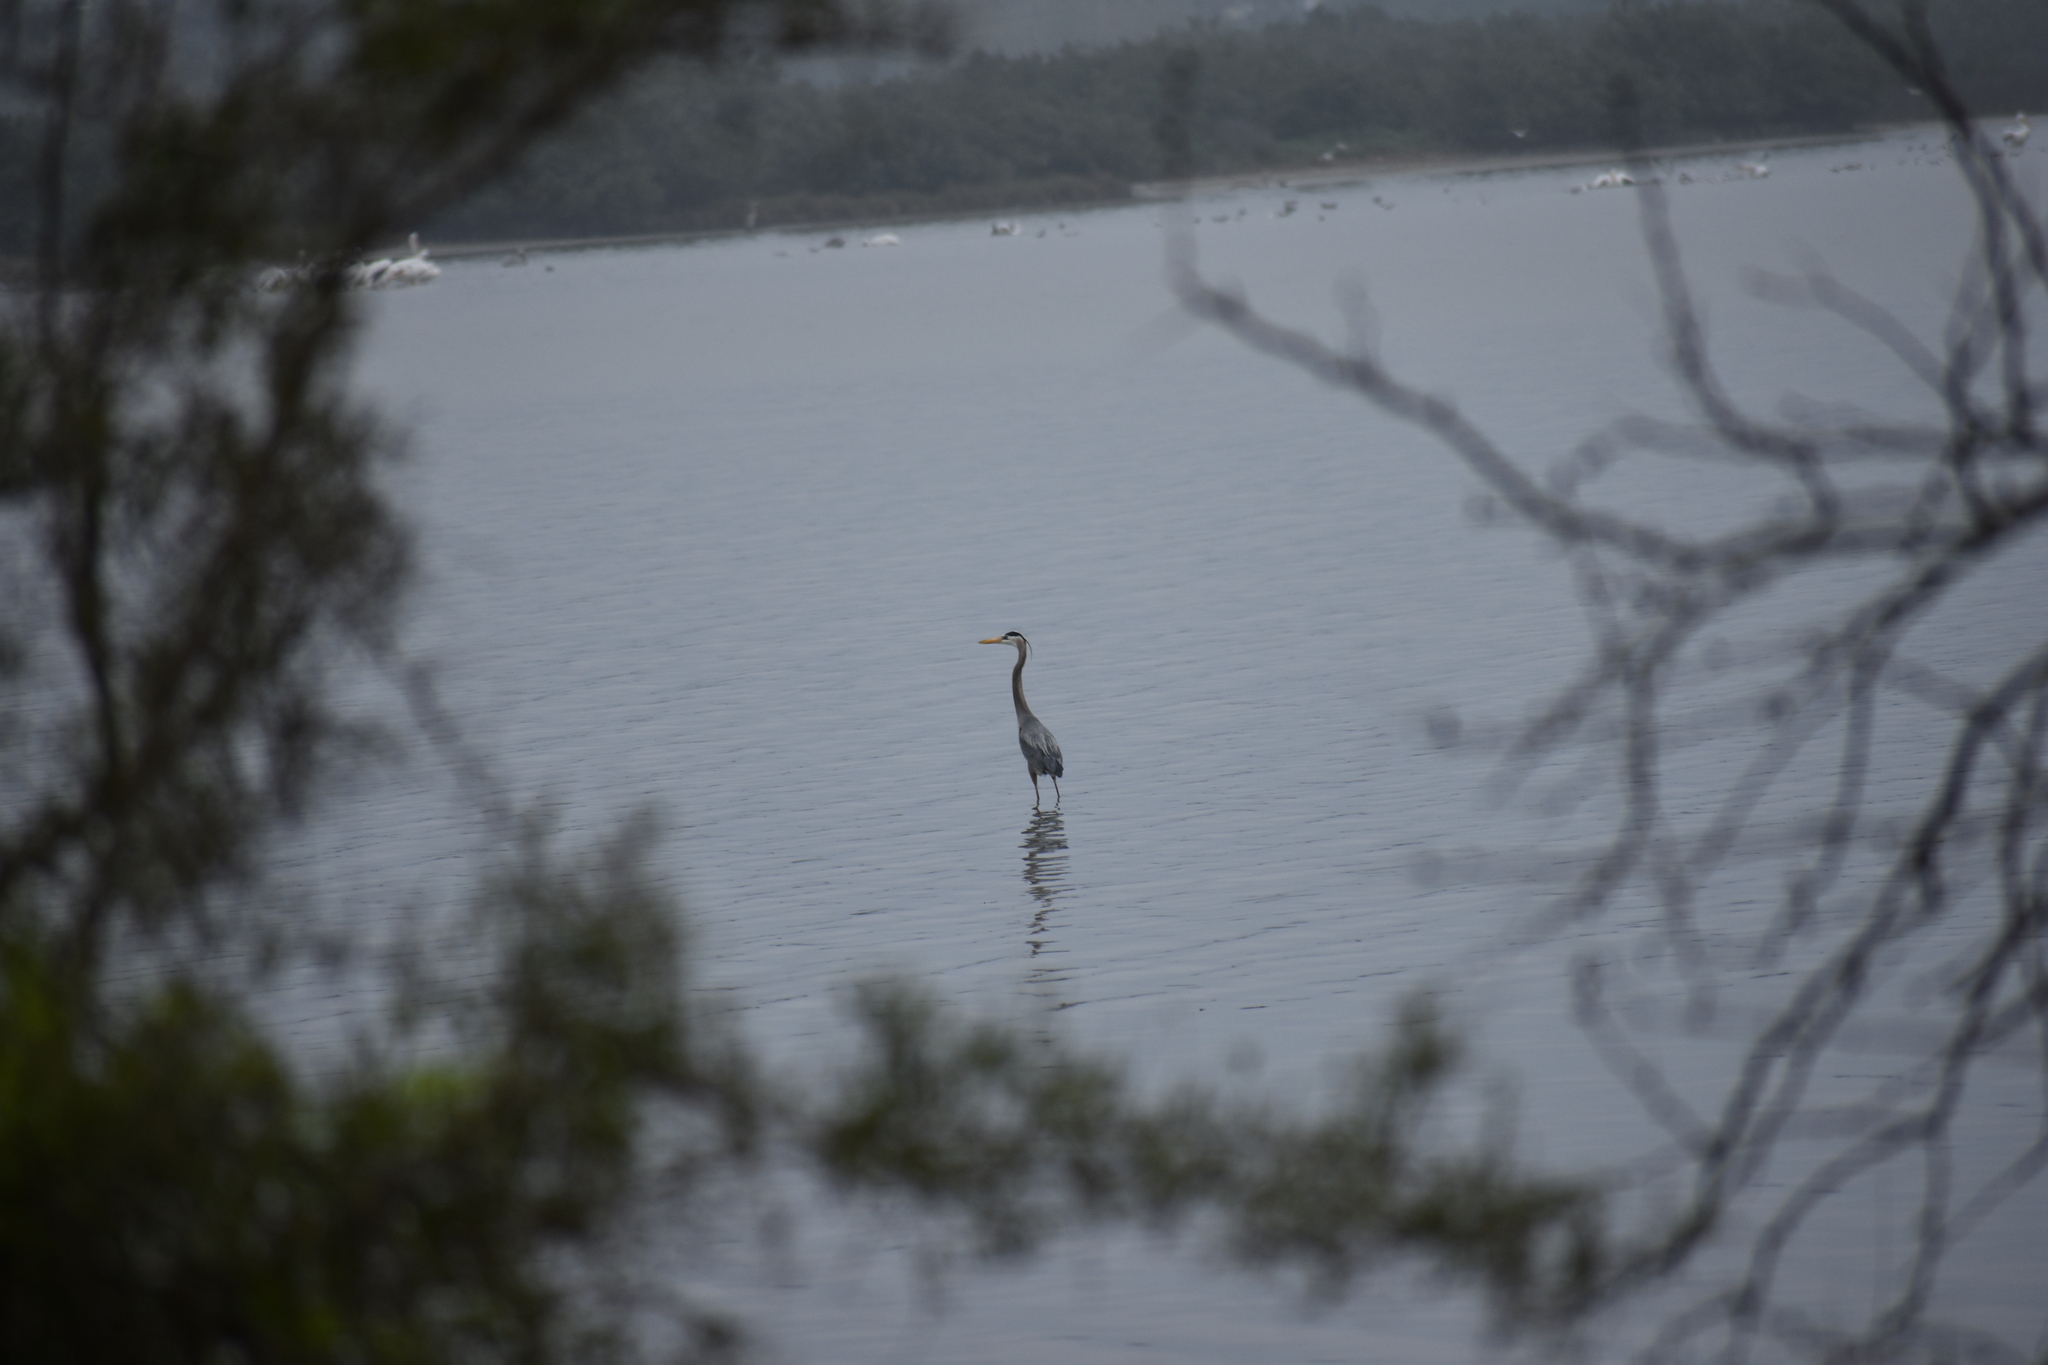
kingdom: Animalia
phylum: Chordata
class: Aves
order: Pelecaniformes
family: Ardeidae
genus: Ardea
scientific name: Ardea herodias
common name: Great blue heron
